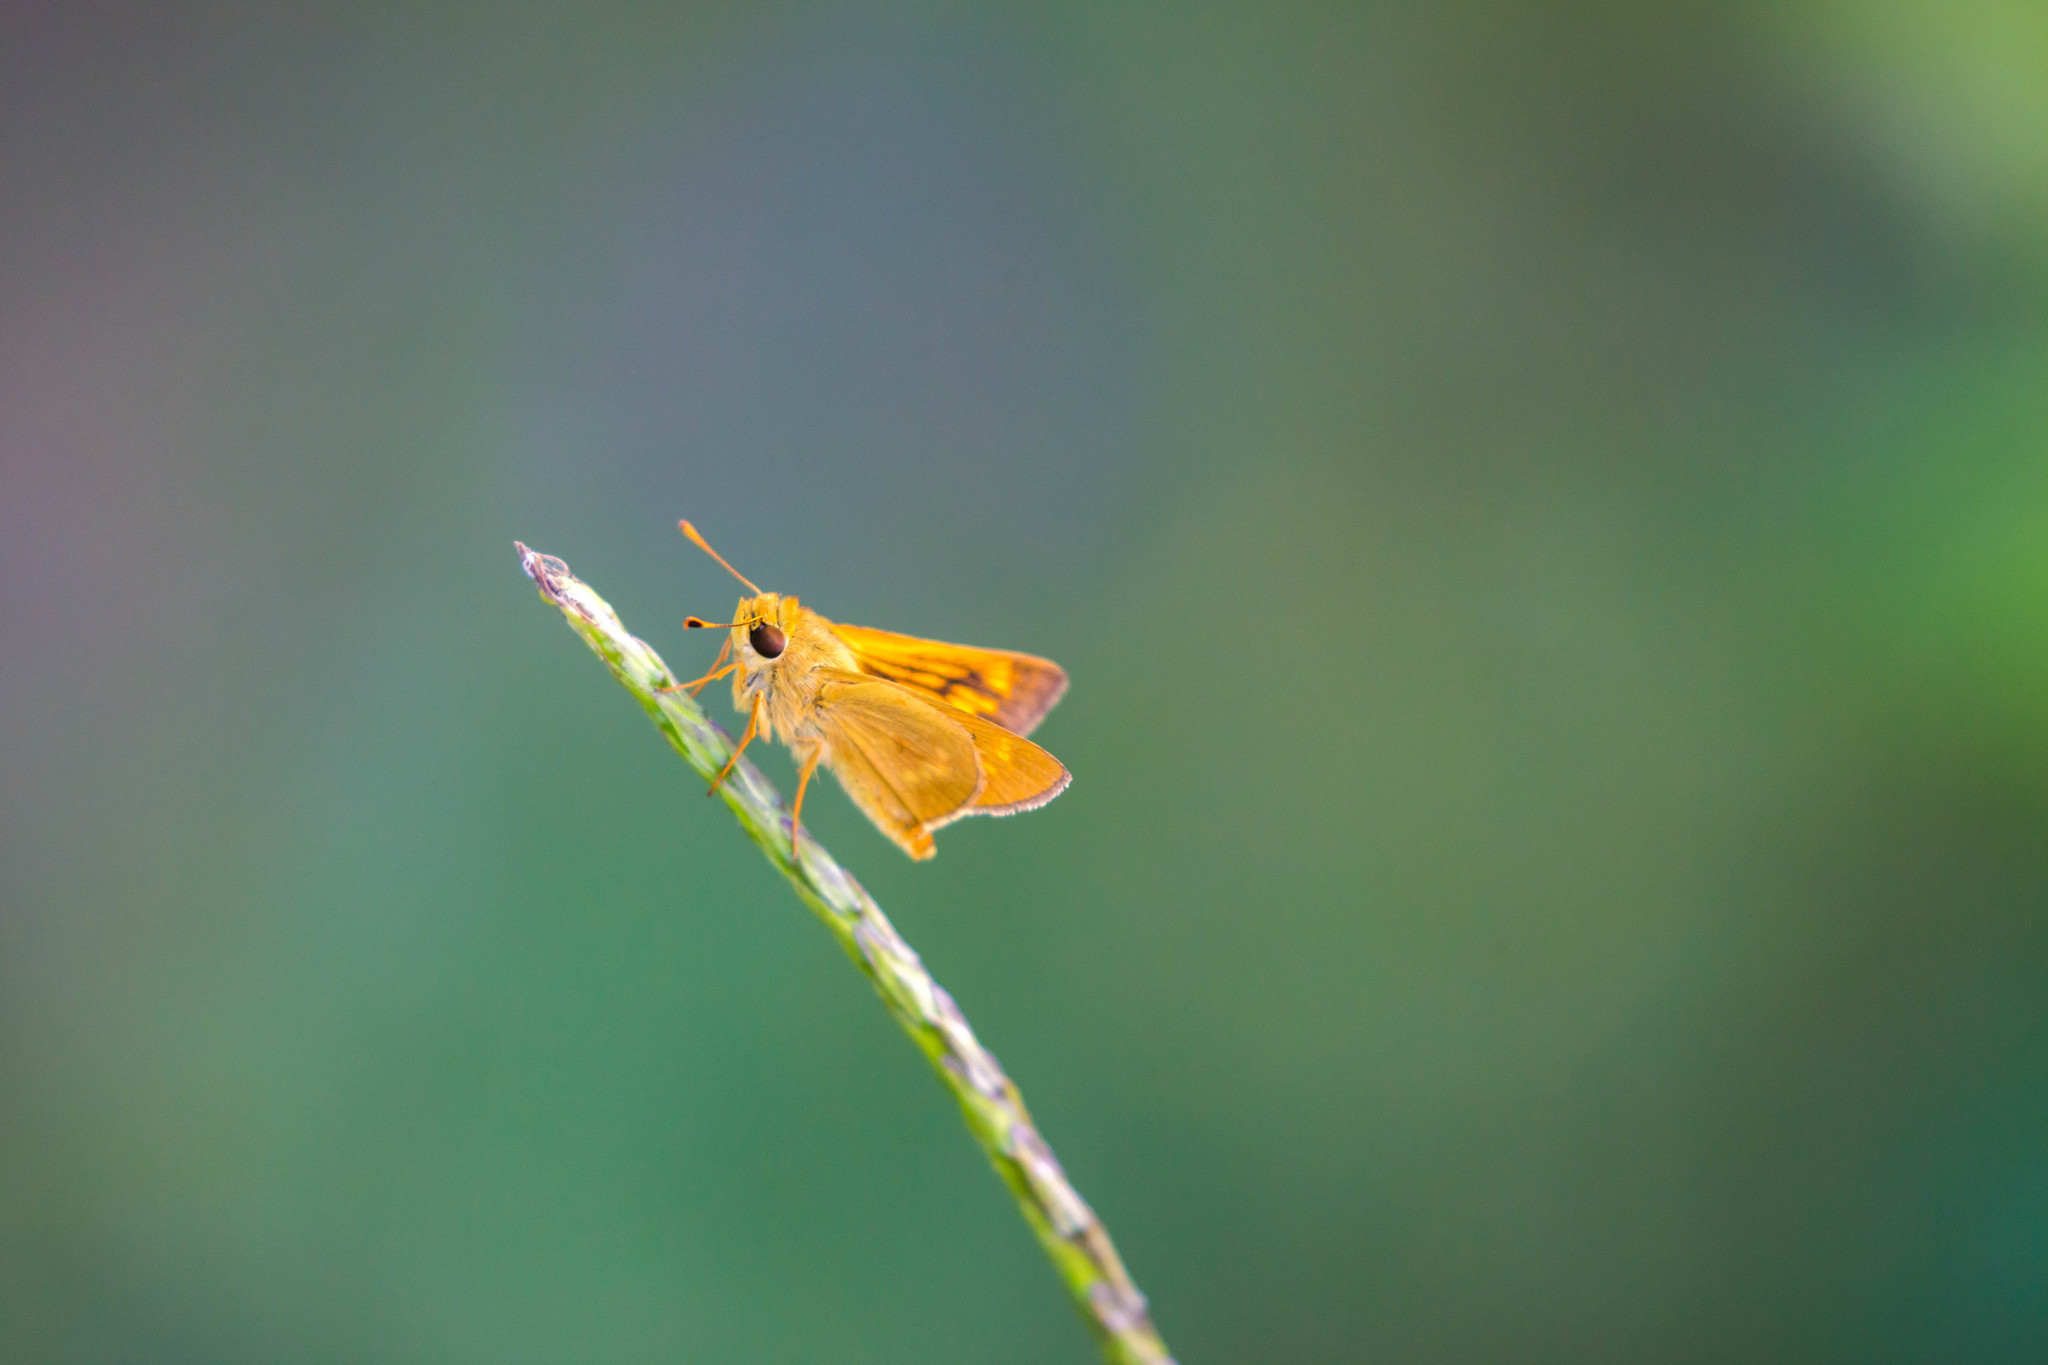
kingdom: Animalia
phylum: Arthropoda
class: Insecta
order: Lepidoptera
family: Hesperiidae
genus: Mellana
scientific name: Mellana eulogius
